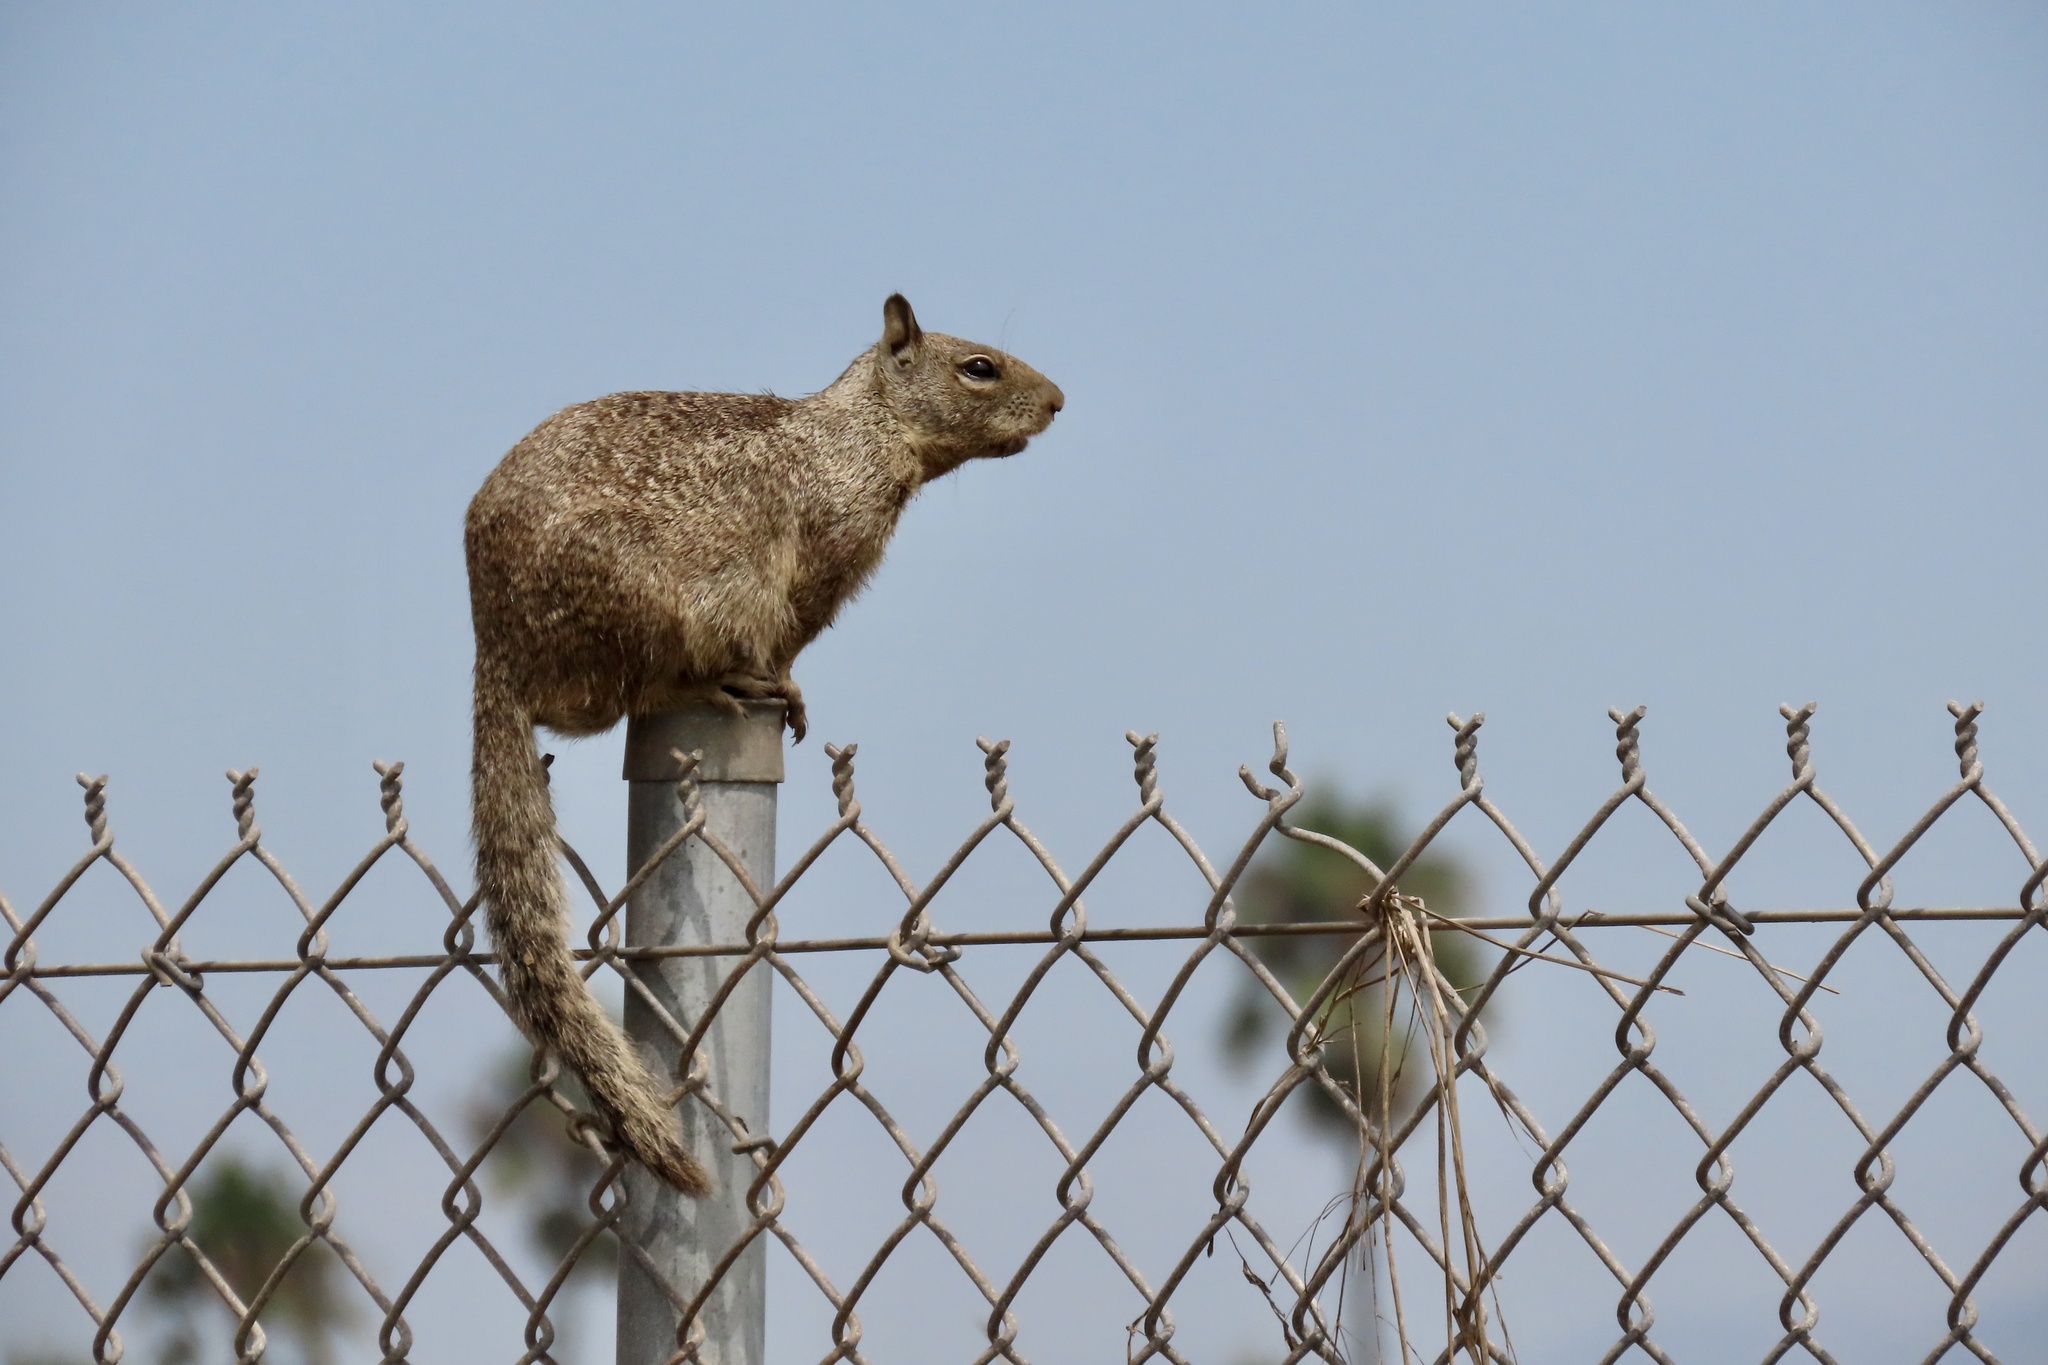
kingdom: Animalia
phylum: Chordata
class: Mammalia
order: Rodentia
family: Sciuridae
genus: Otospermophilus
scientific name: Otospermophilus beecheyi
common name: California ground squirrel
